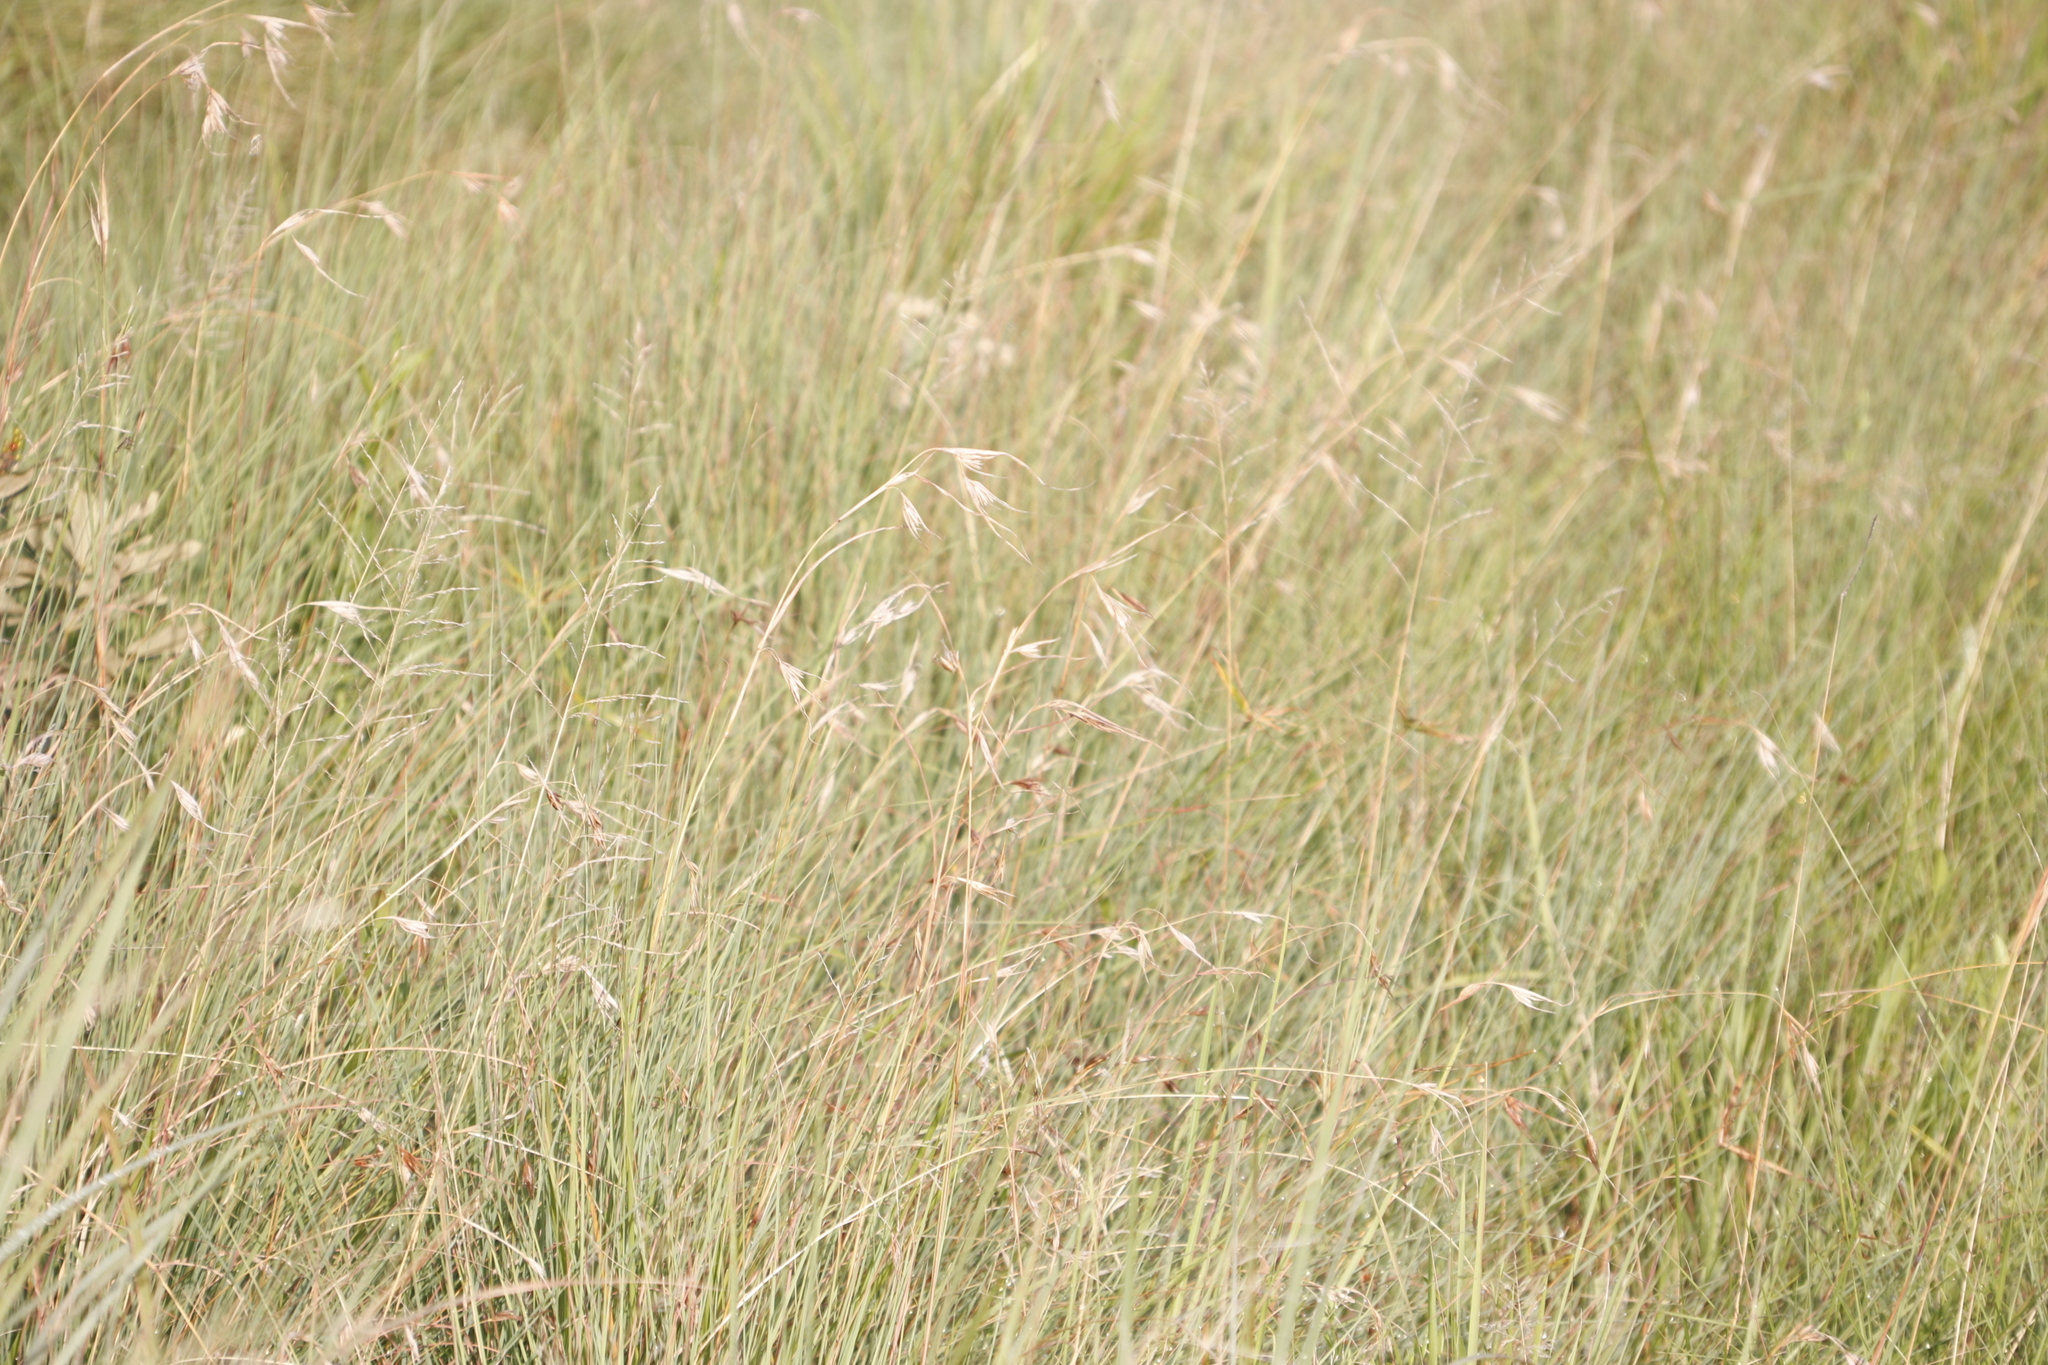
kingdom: Plantae
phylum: Tracheophyta
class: Liliopsida
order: Poales
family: Poaceae
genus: Themeda
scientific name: Themeda triandra
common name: Kangaroo grass
